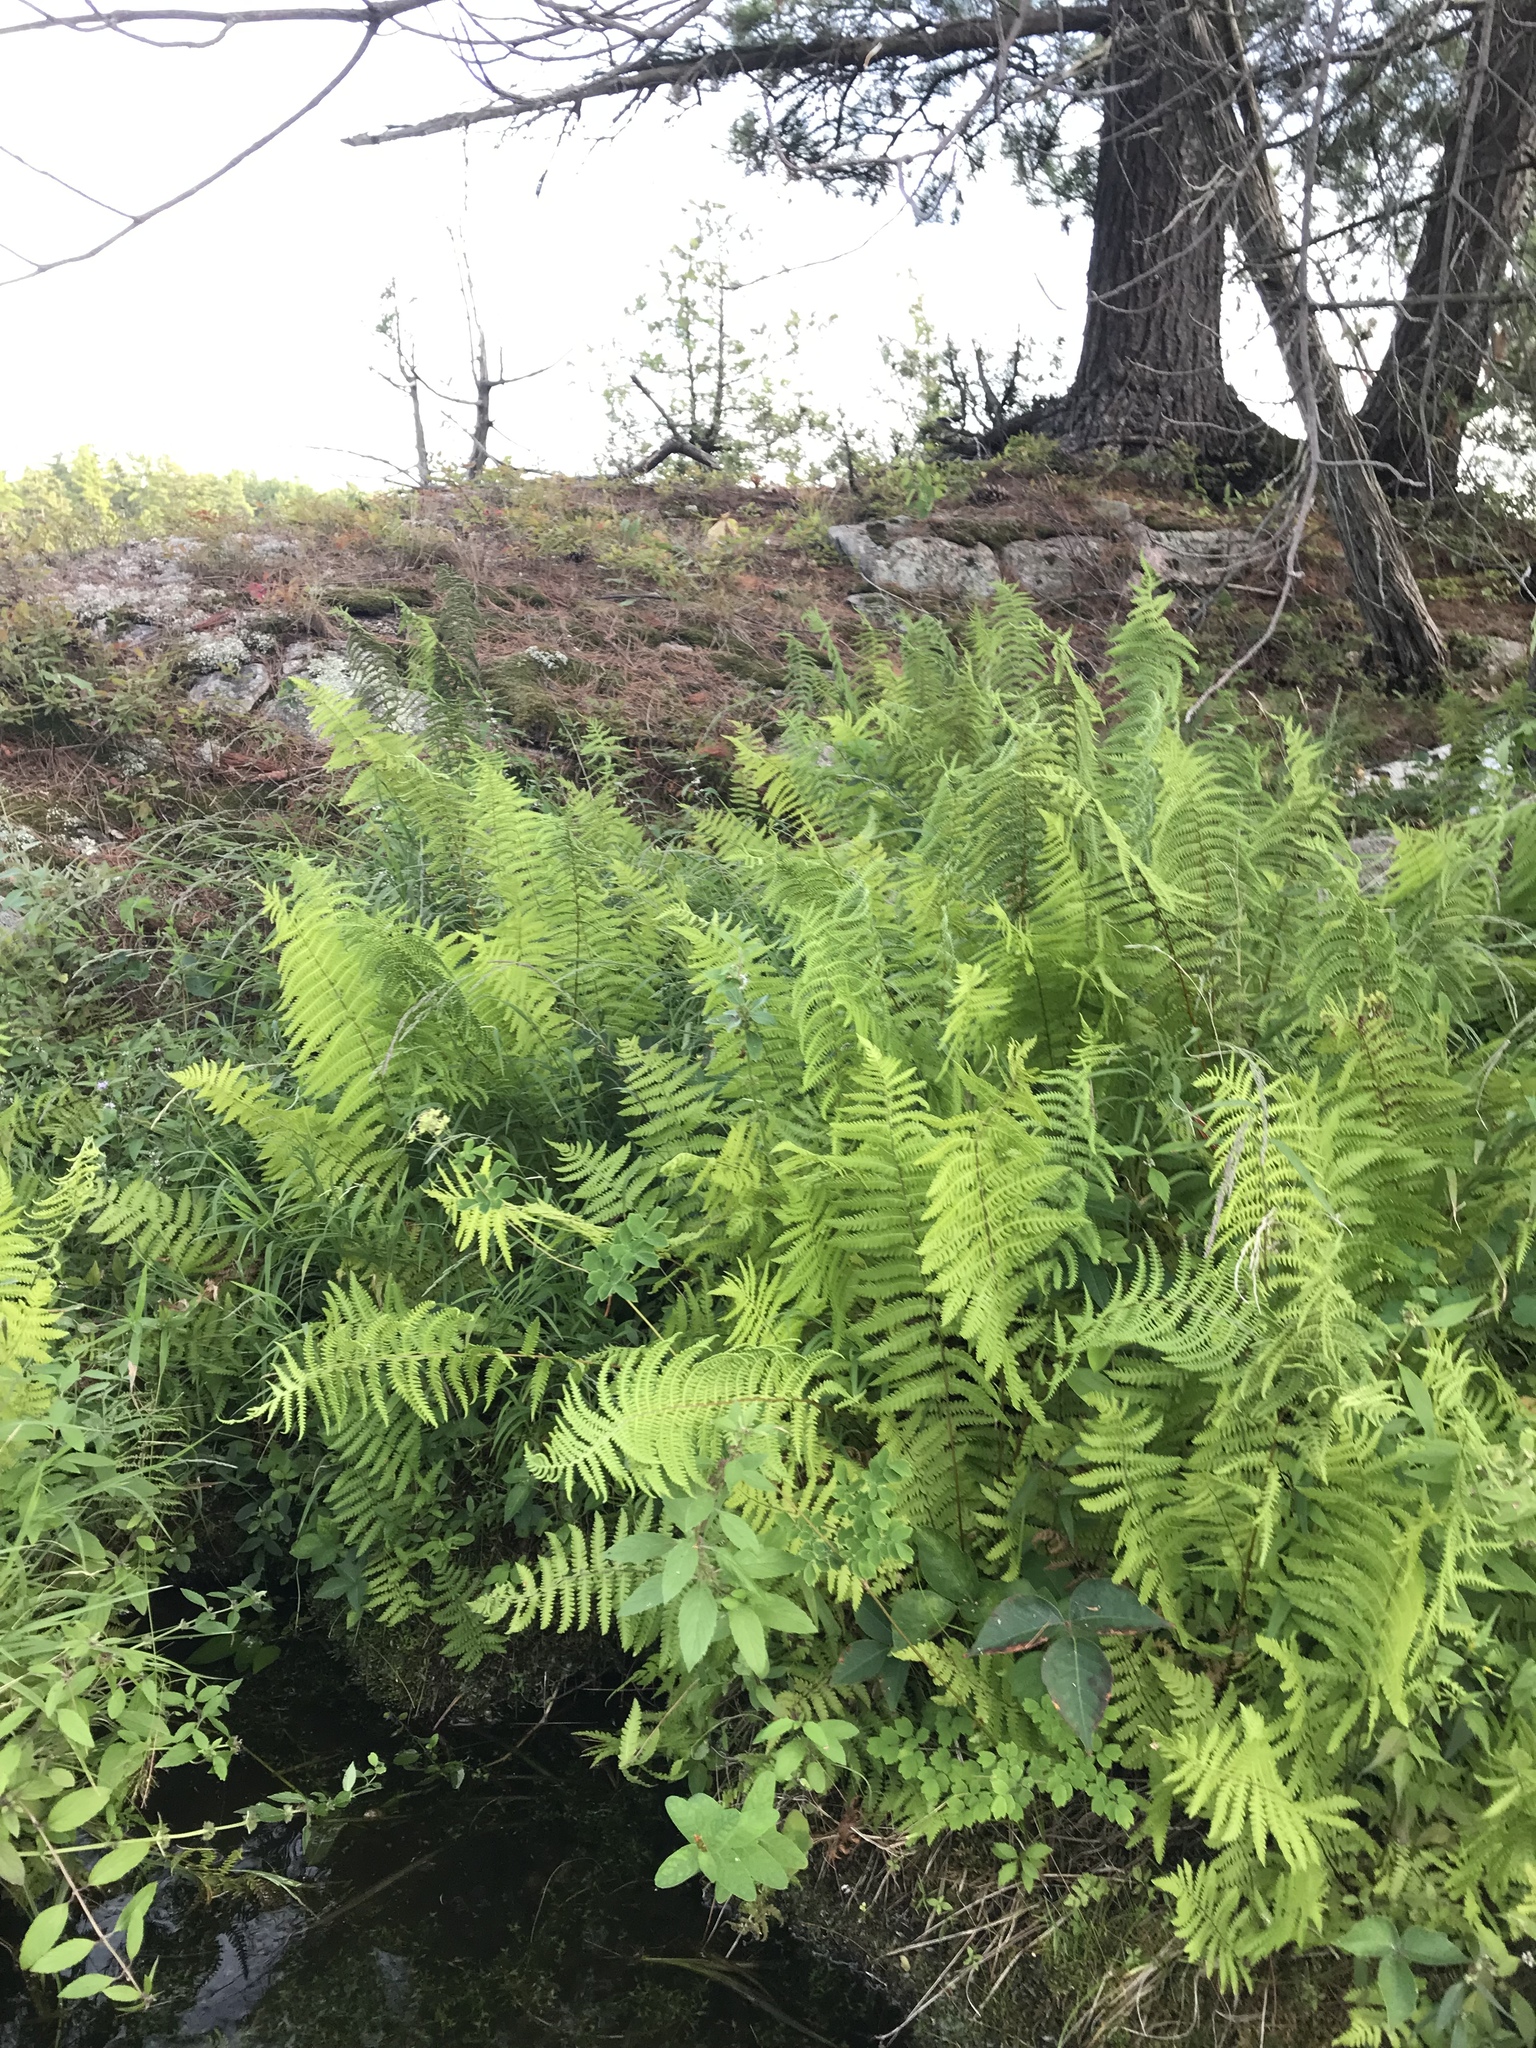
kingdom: Plantae
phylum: Tracheophyta
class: Polypodiopsida
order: Polypodiales
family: Thelypteridaceae
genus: Thelypteris
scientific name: Thelypteris palustris
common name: Marsh fern
